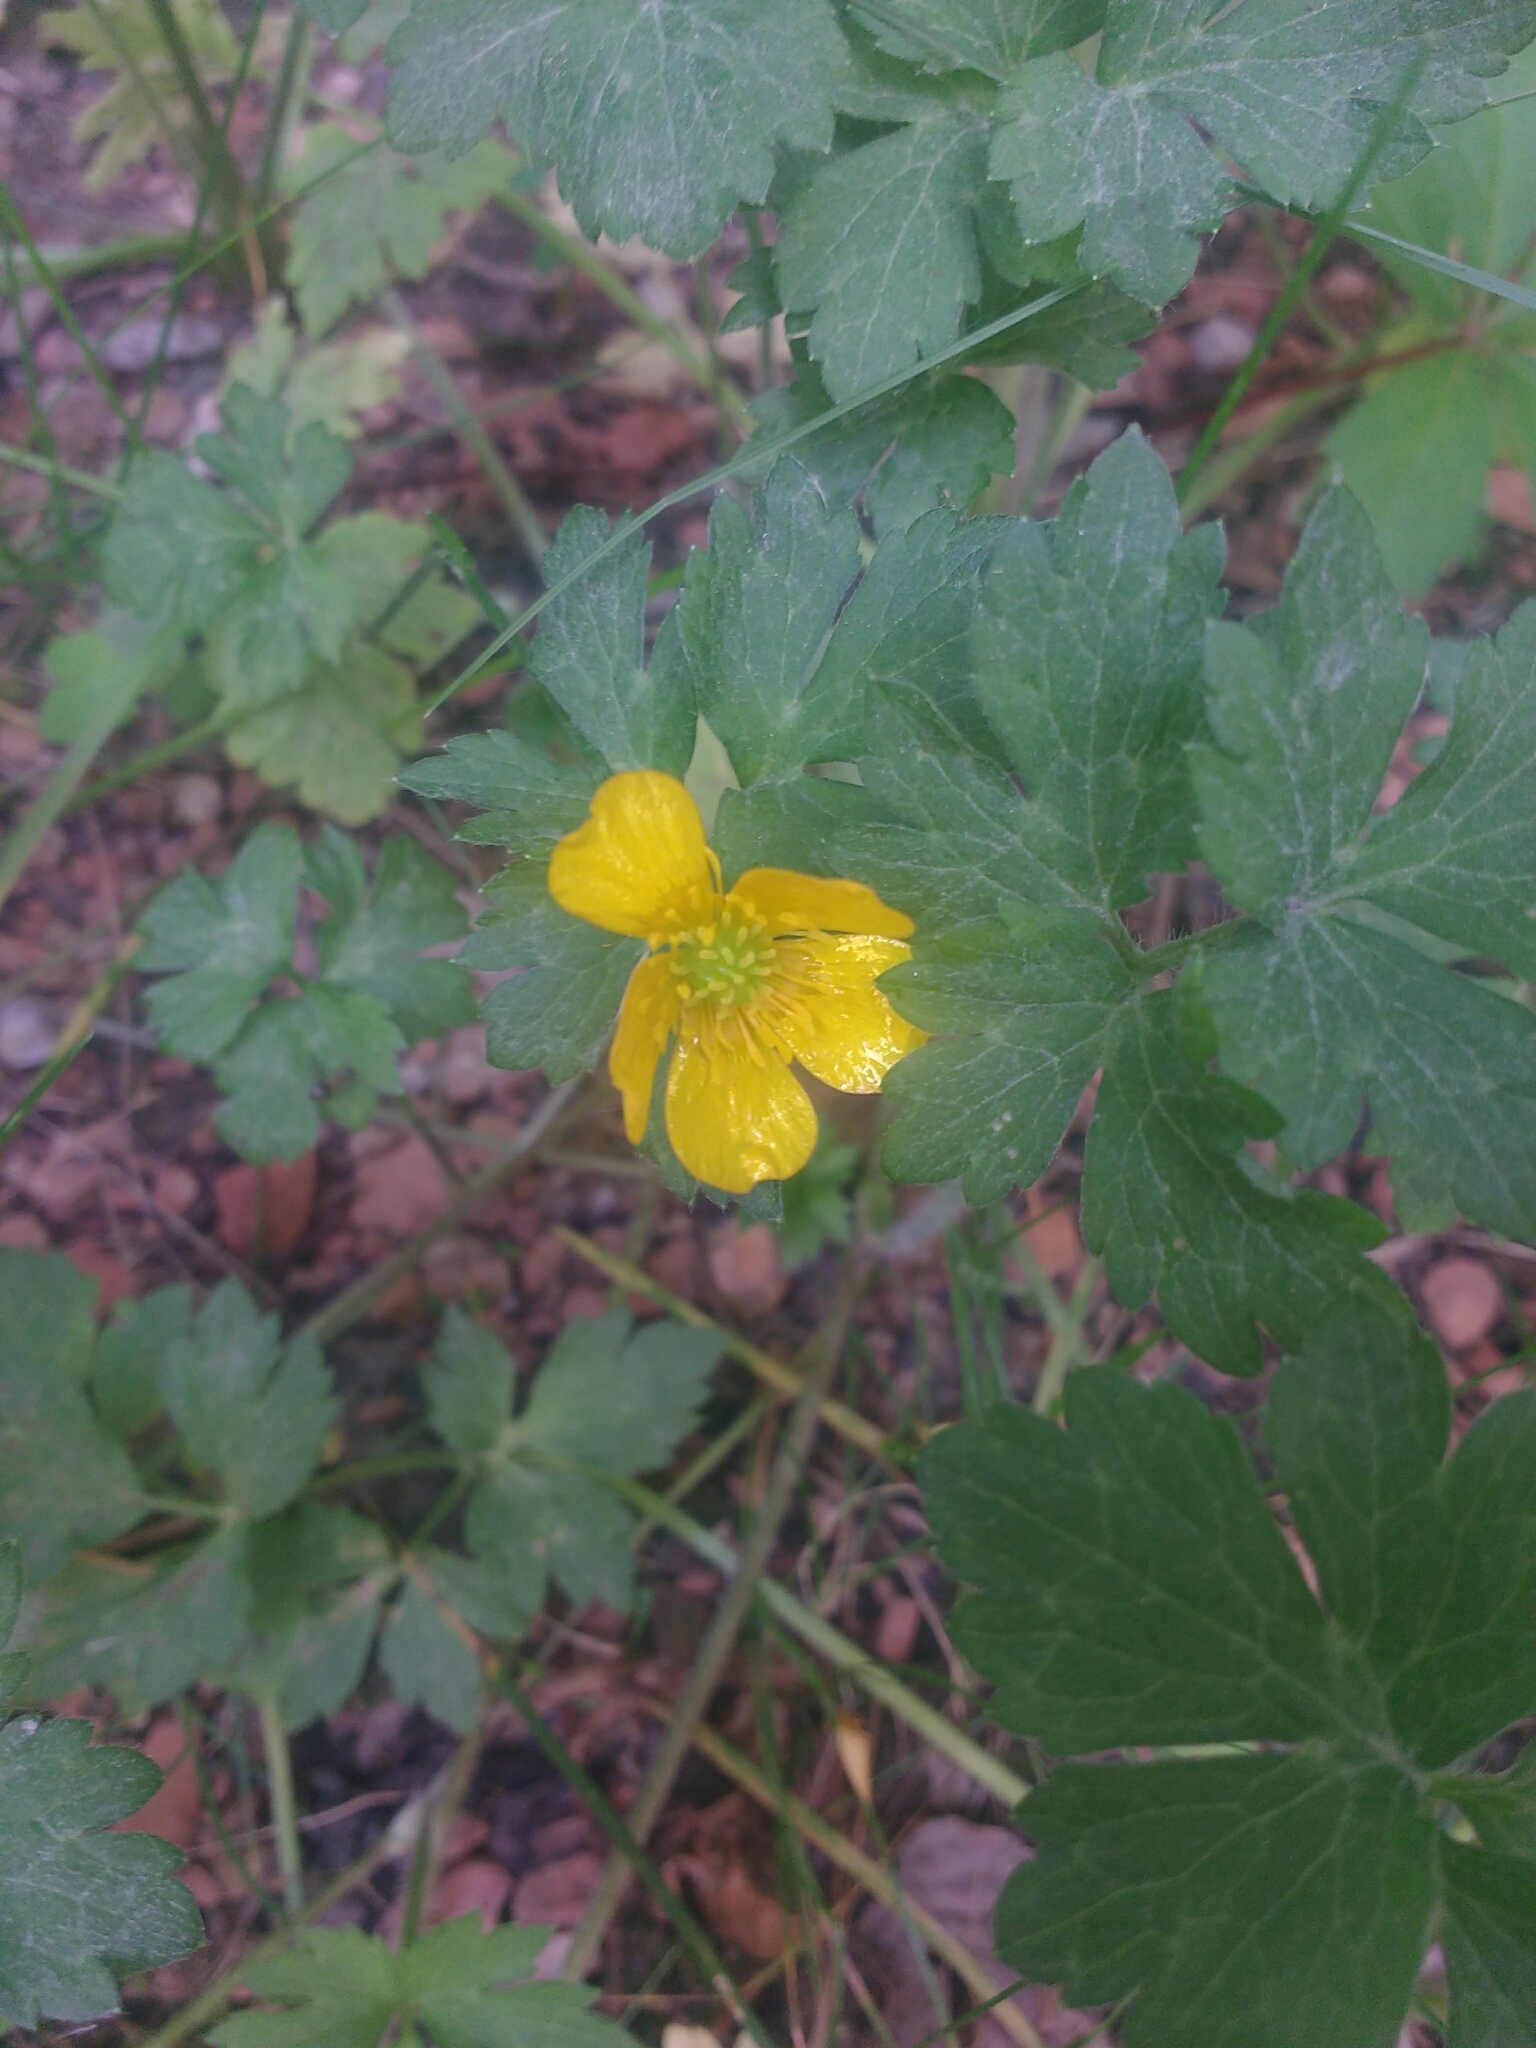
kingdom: Plantae
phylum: Tracheophyta
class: Magnoliopsida
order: Ranunculales
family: Ranunculaceae
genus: Ranunculus
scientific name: Ranunculus repens
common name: Creeping buttercup
